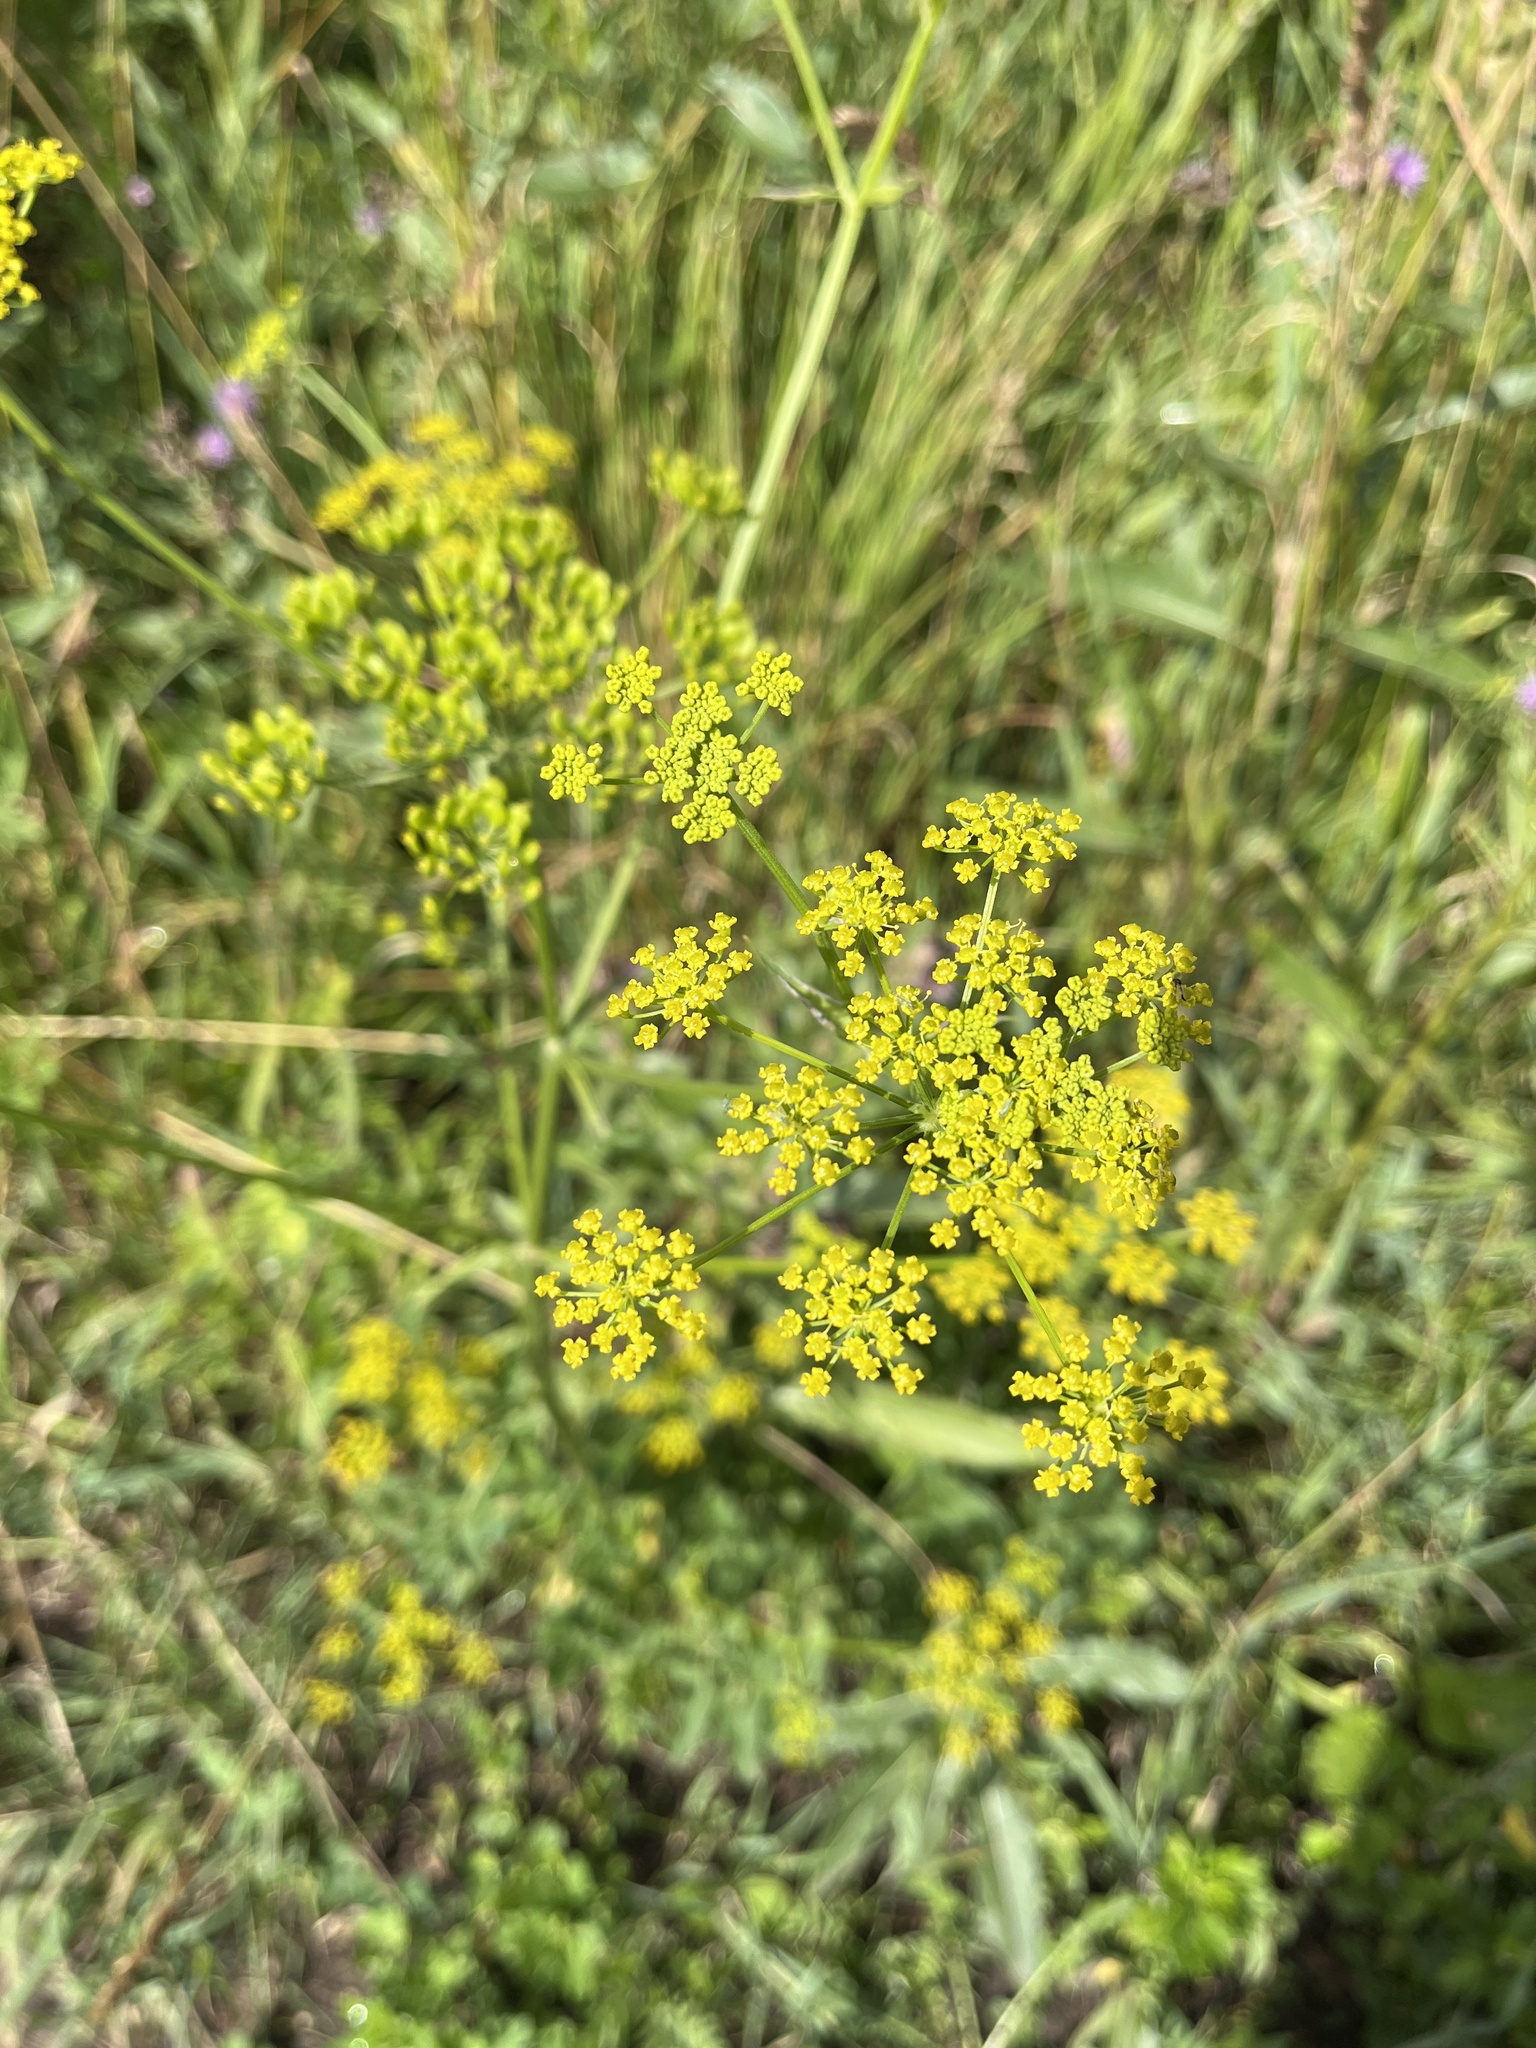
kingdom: Plantae
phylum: Tracheophyta
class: Magnoliopsida
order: Apiales
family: Apiaceae
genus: Pastinaca
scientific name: Pastinaca sativa
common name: Wild parsnip
